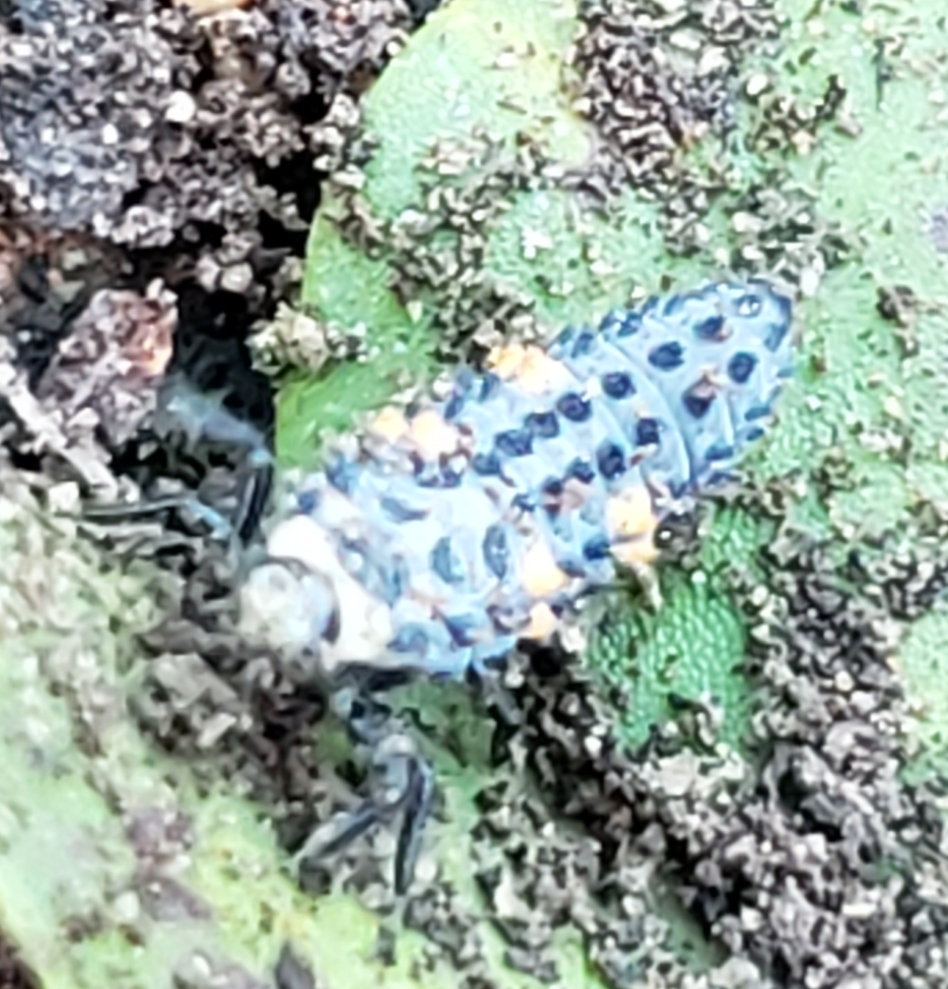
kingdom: Animalia
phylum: Arthropoda
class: Insecta
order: Coleoptera
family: Coccinellidae
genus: Coccinella
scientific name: Coccinella septempunctata
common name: Sevenspotted lady beetle
